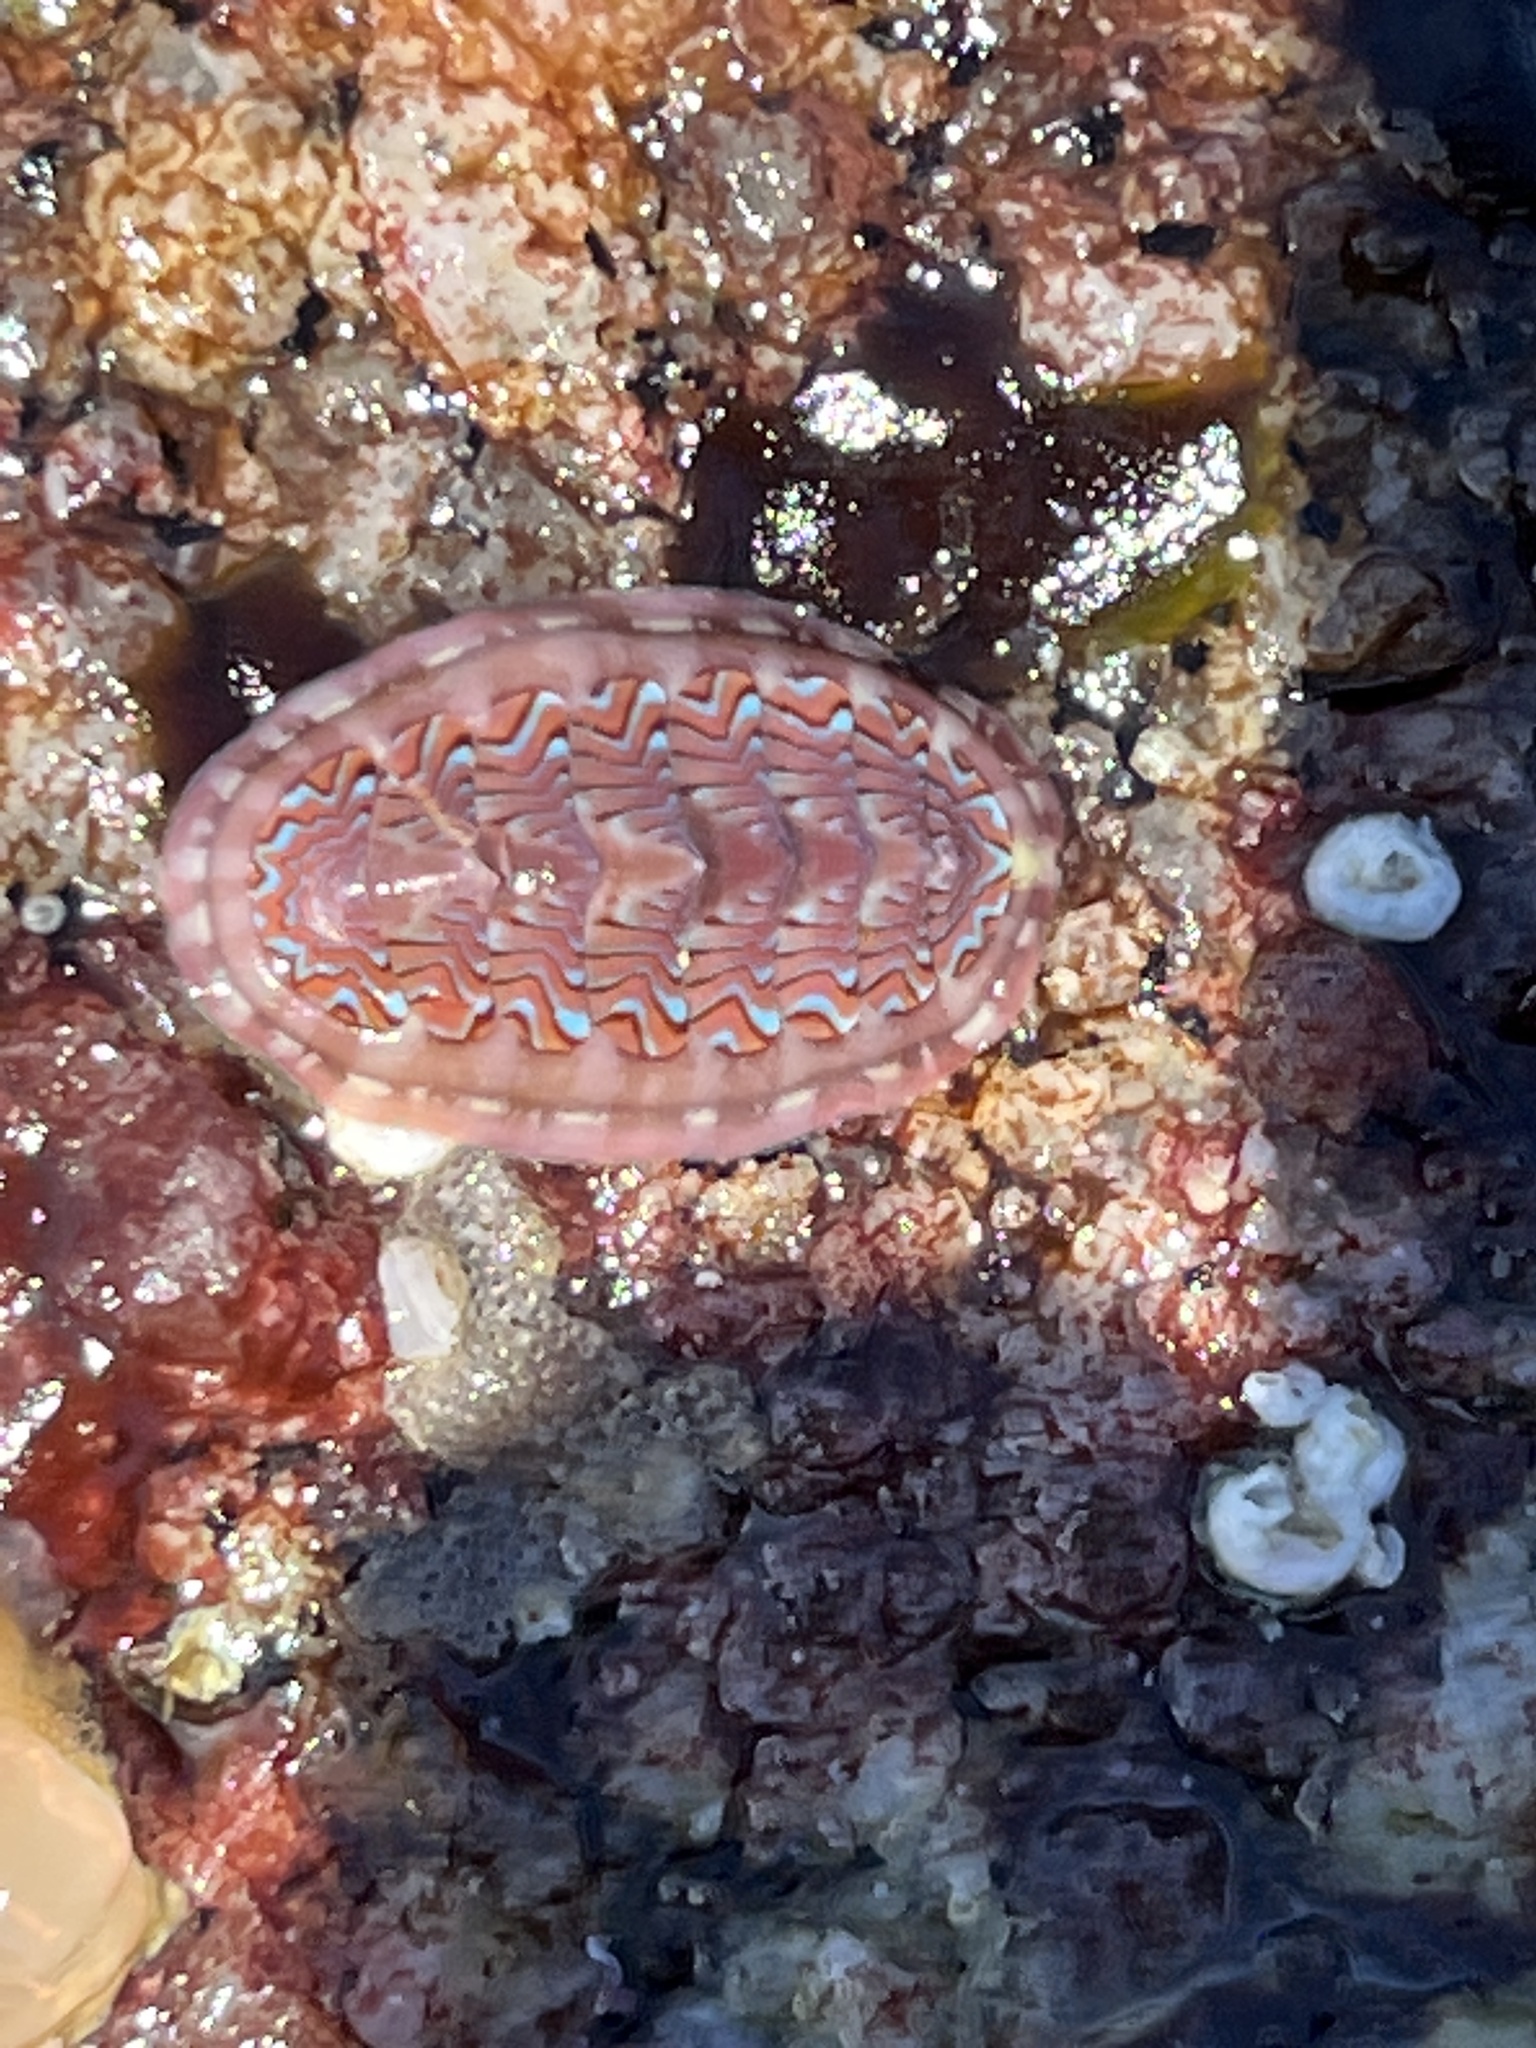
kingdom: Animalia
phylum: Mollusca
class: Polyplacophora
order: Chitonida
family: Tonicellidae
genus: Tonicella
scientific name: Tonicella lokii
